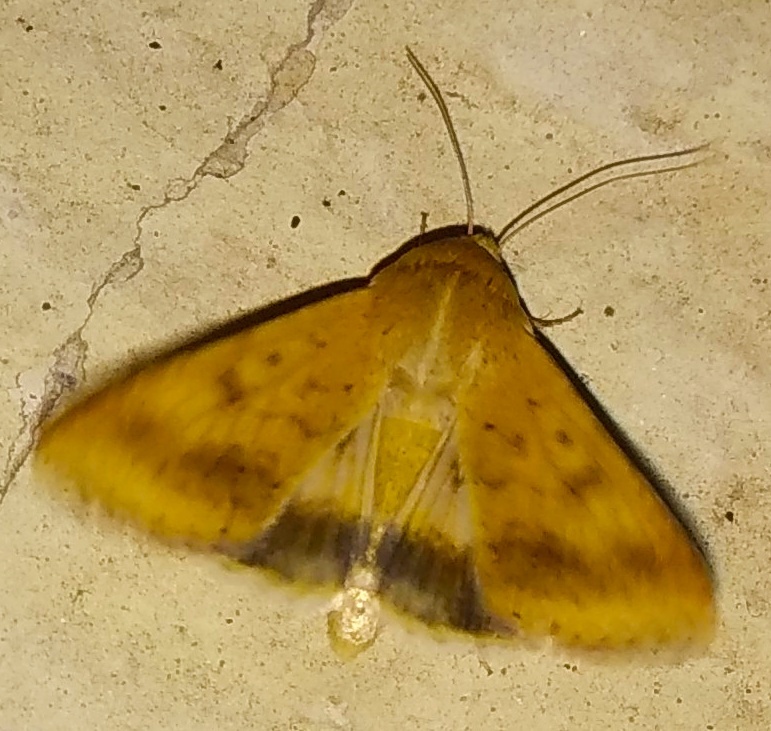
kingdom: Animalia
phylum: Arthropoda
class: Insecta
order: Lepidoptera
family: Noctuidae
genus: Helicoverpa
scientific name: Helicoverpa armigera
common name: Cotton bollworm
